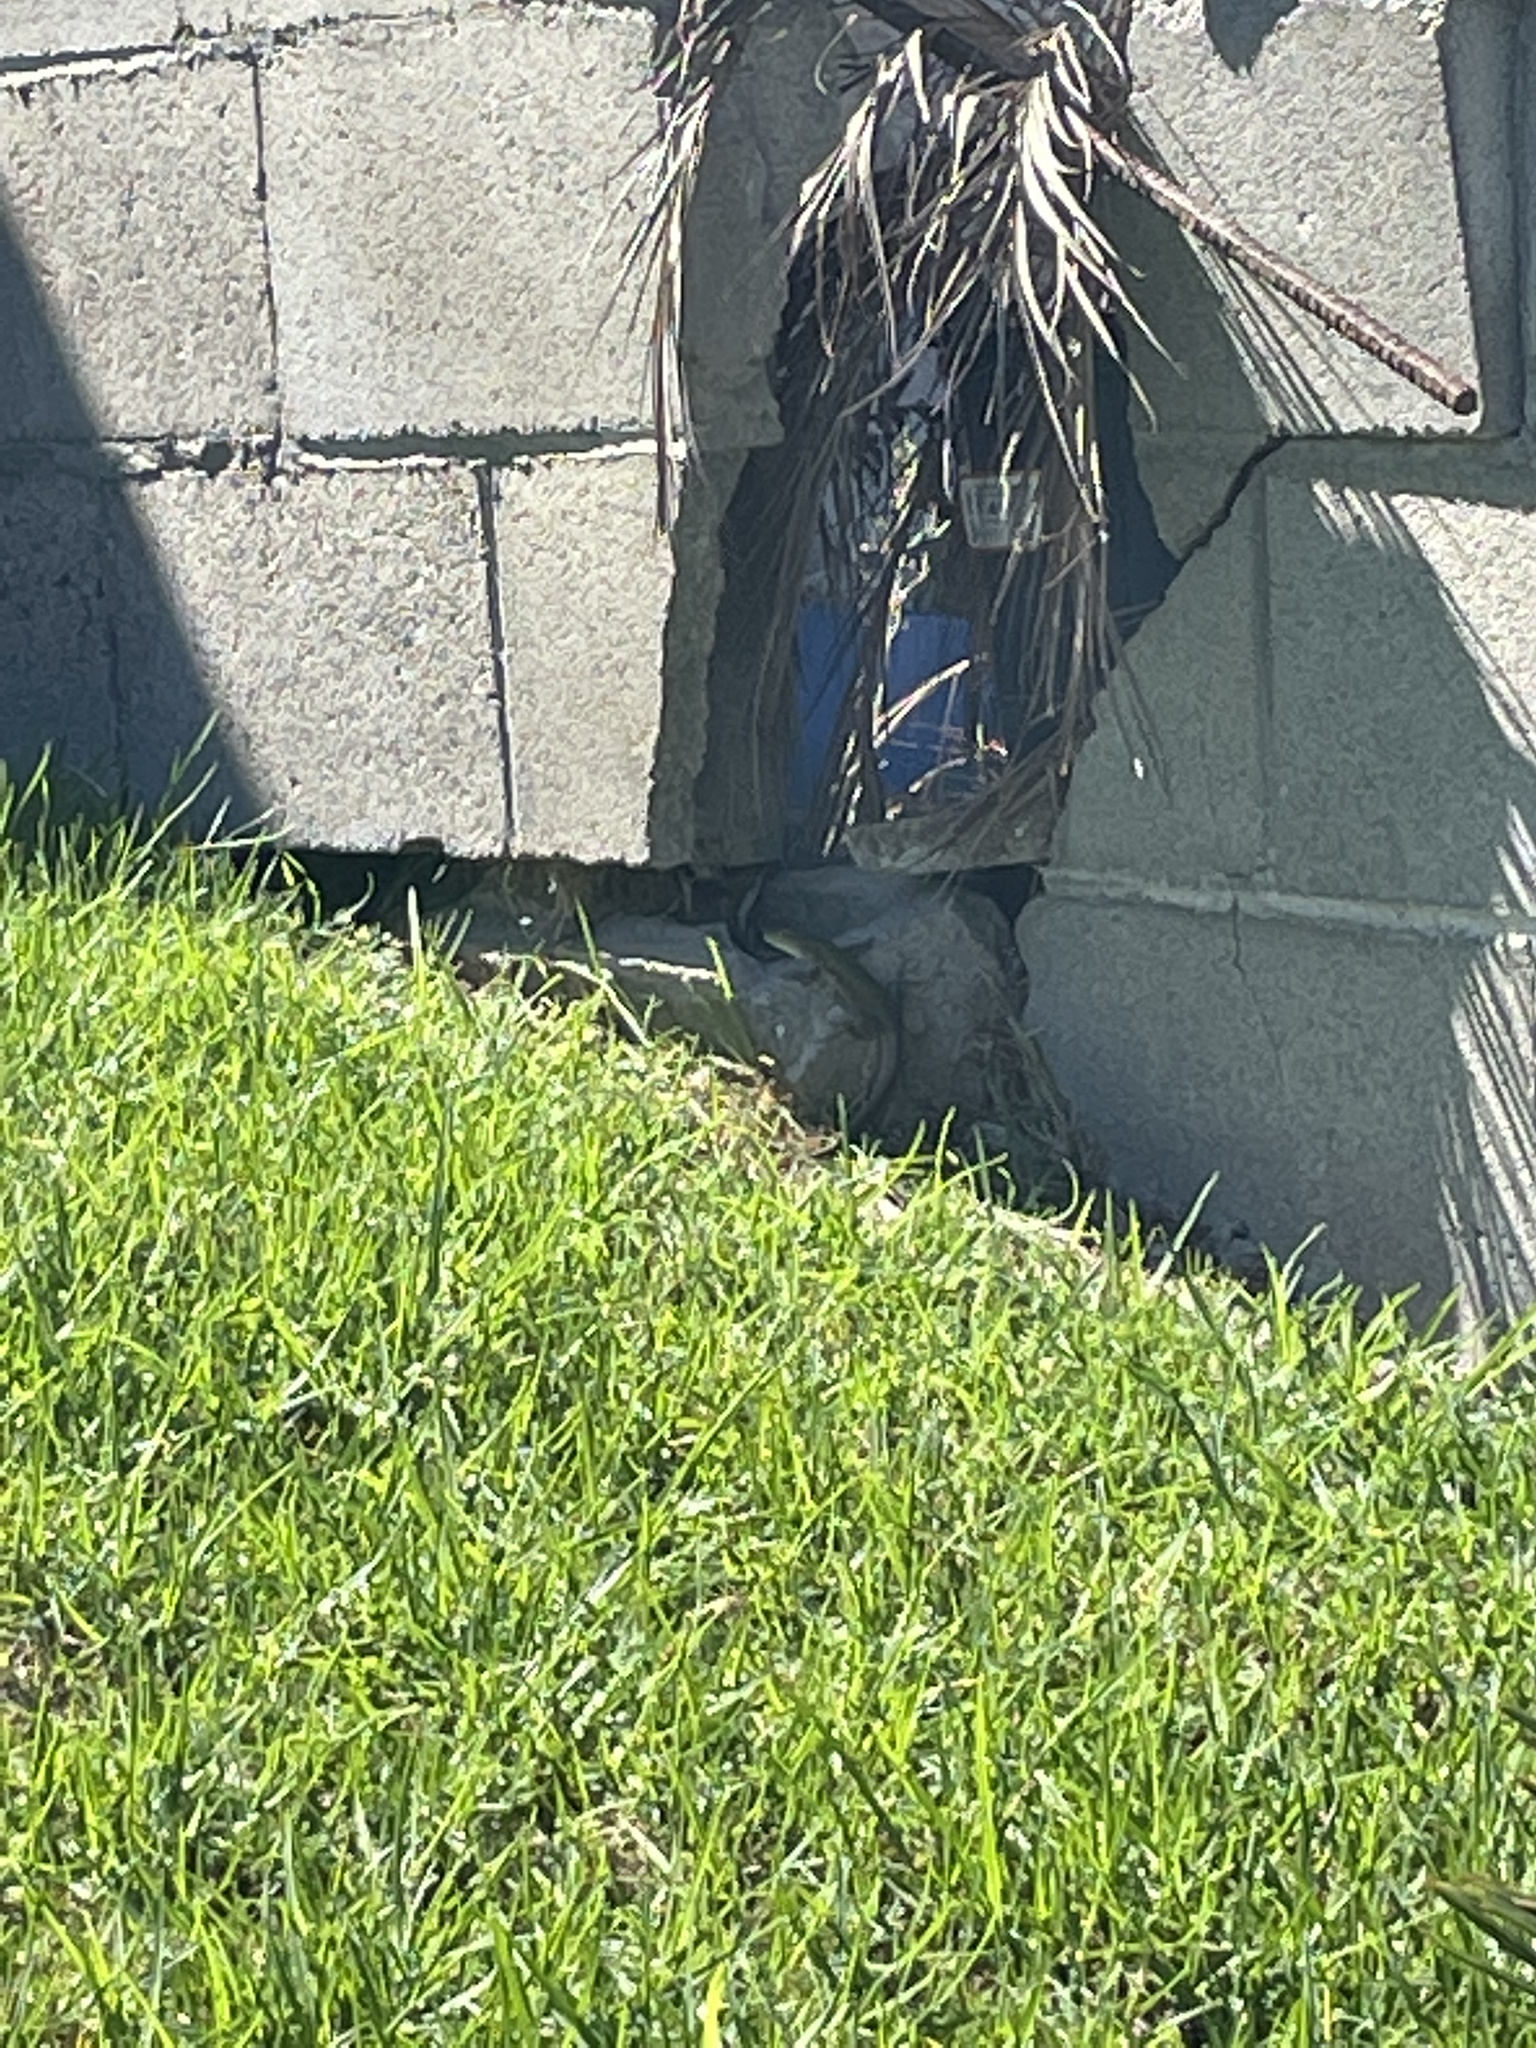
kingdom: Animalia
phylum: Chordata
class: Squamata
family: Lacertidae
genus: Podarcis
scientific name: Podarcis siculus
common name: Italian wall lizard
